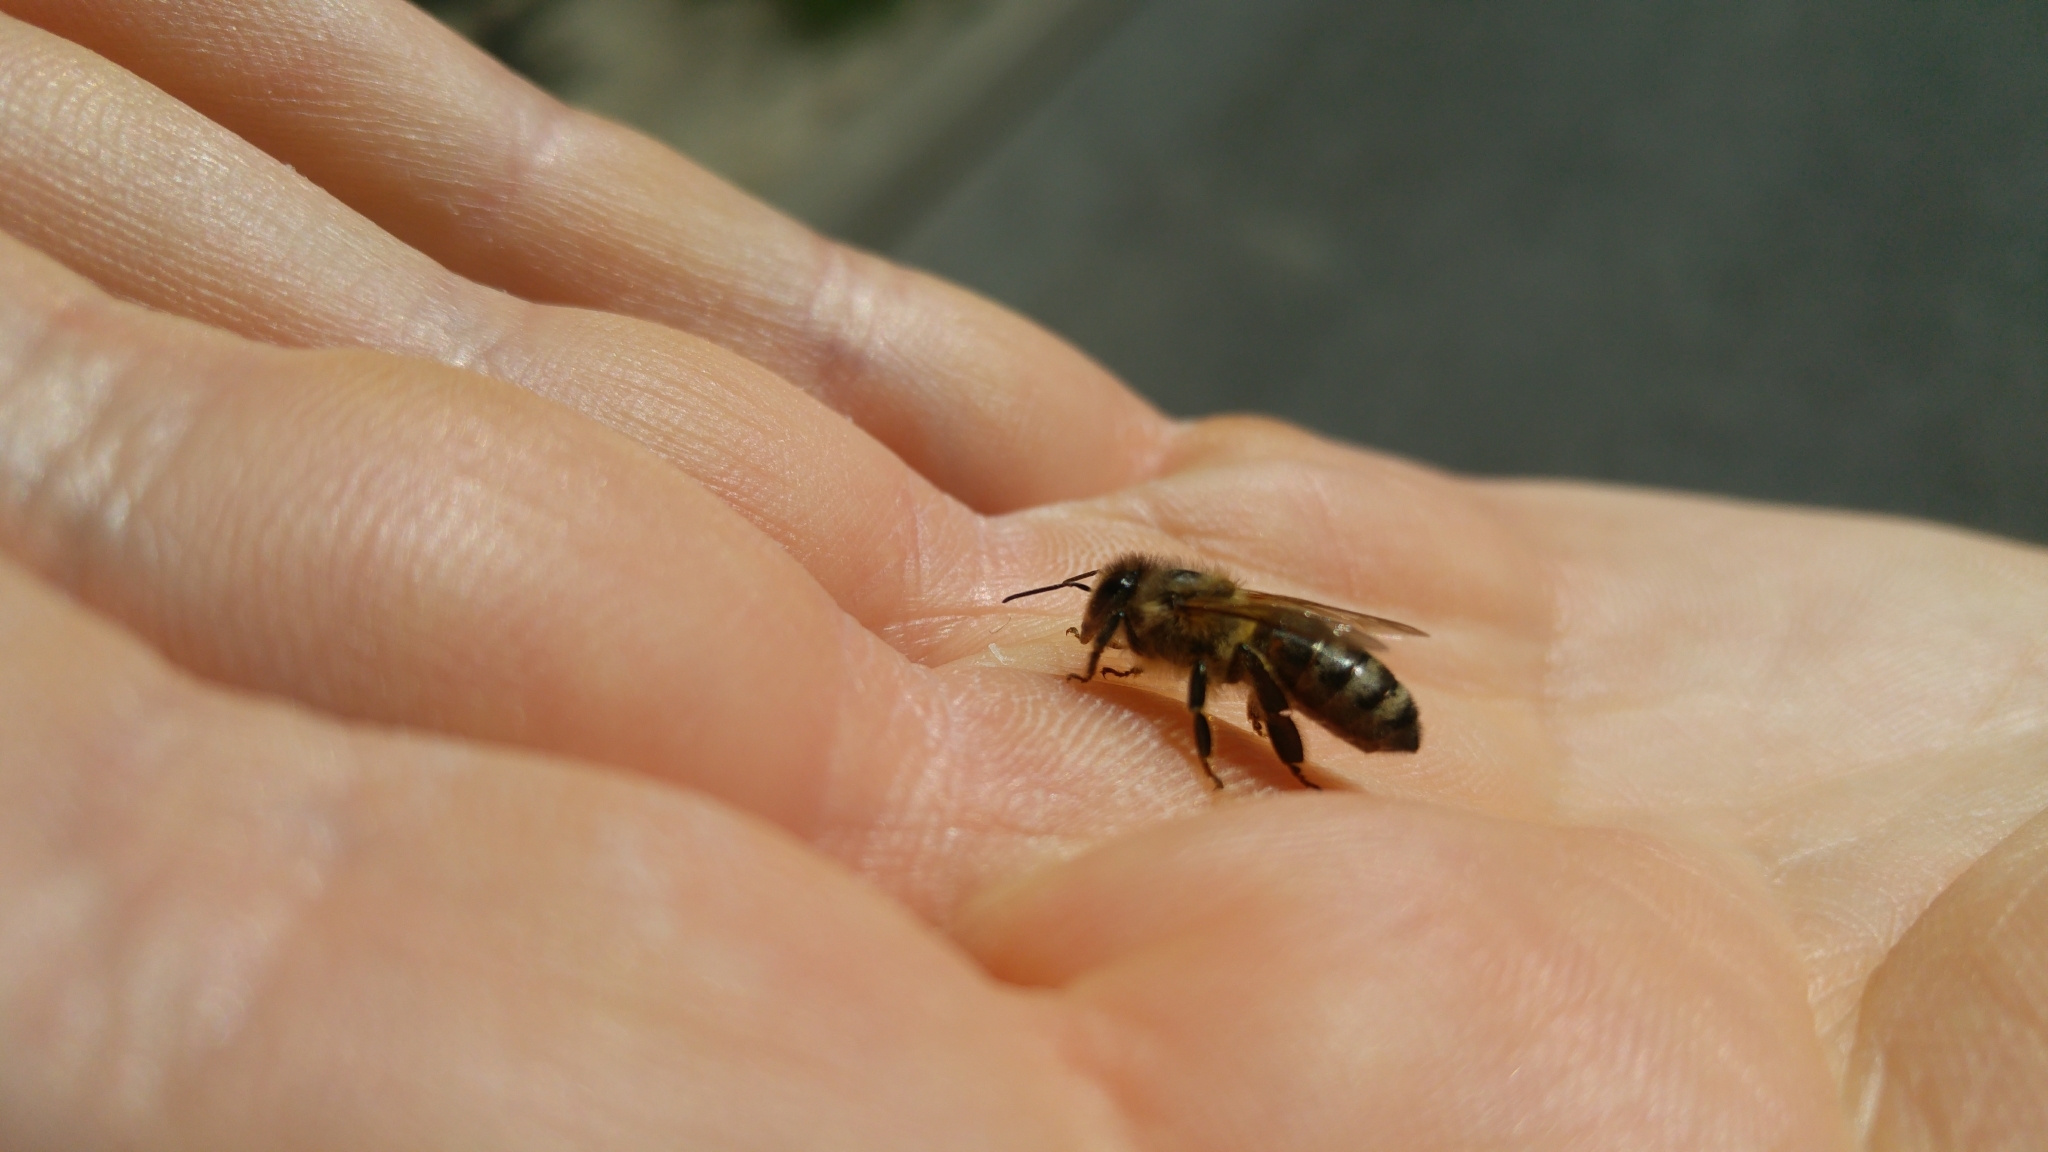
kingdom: Animalia
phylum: Arthropoda
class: Insecta
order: Hymenoptera
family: Apidae
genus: Apis
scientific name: Apis mellifera
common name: Honey bee
